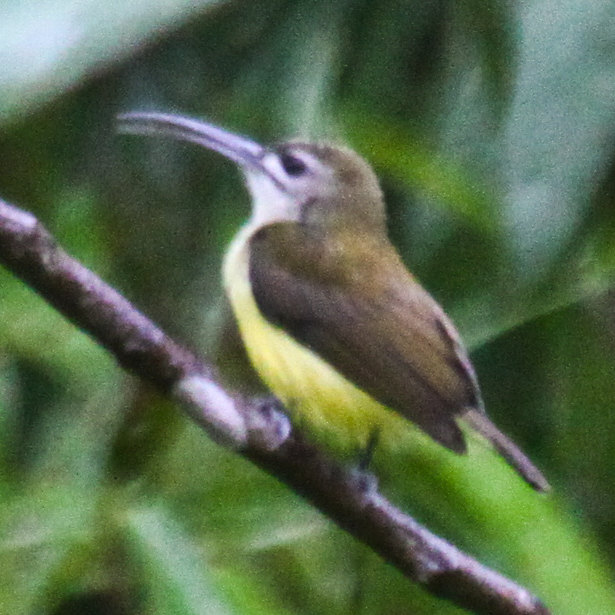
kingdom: Animalia
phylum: Chordata
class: Aves
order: Passeriformes
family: Nectariniidae
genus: Arachnothera
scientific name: Arachnothera longirostra
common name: Little spiderhunter
